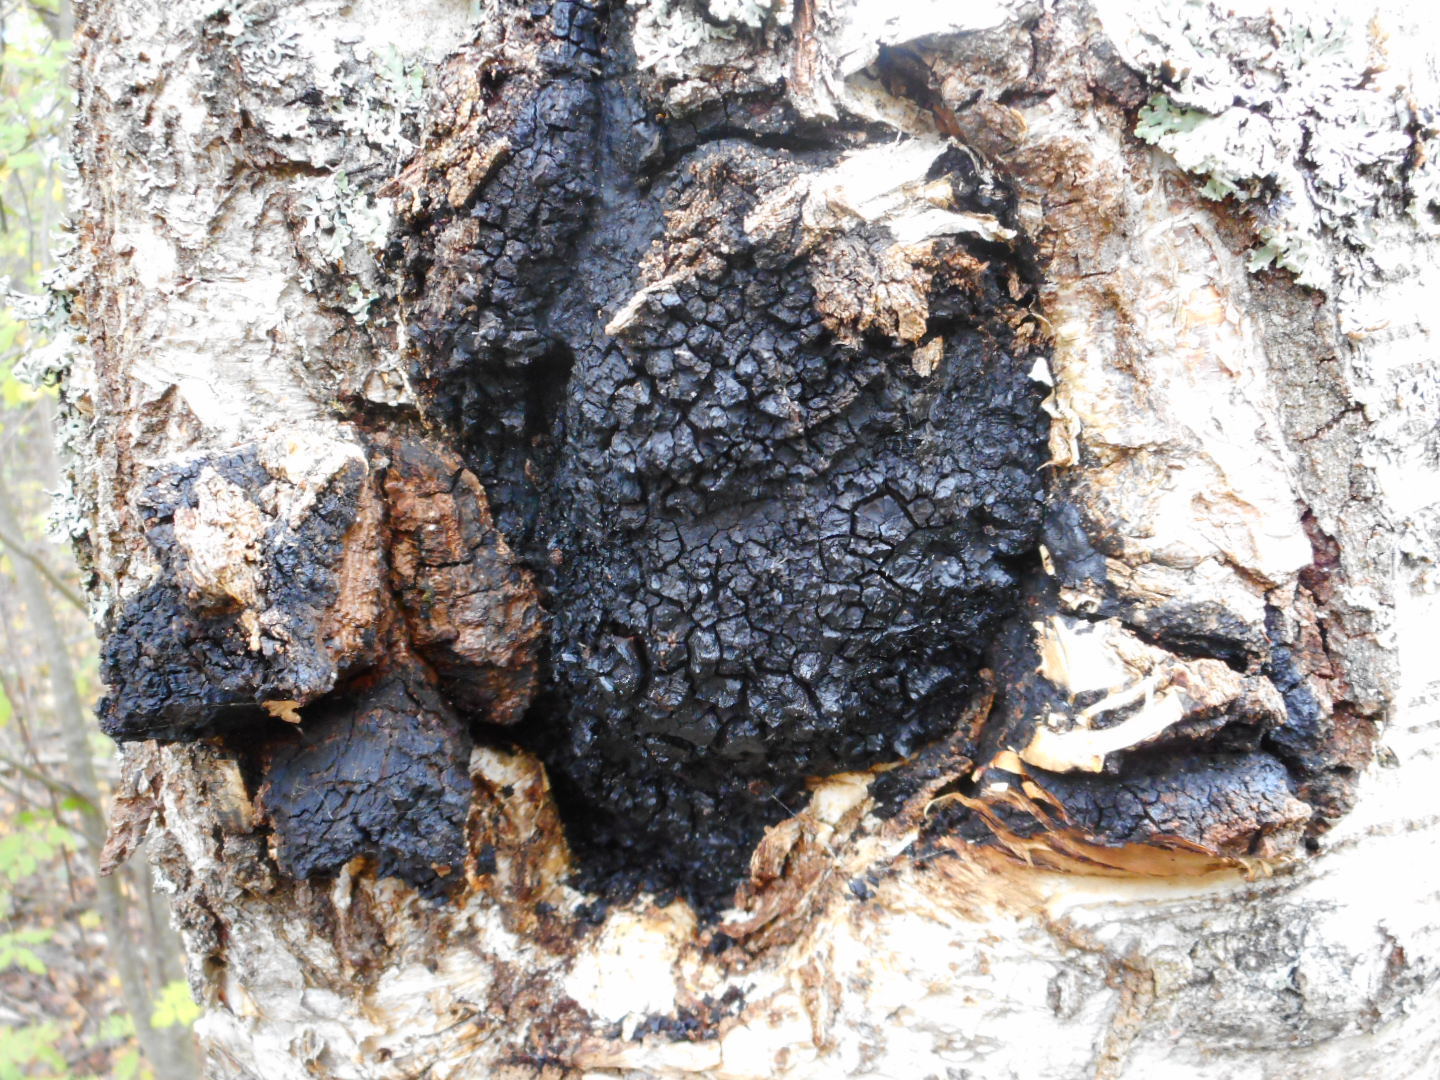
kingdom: Fungi
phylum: Basidiomycota
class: Agaricomycetes
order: Hymenochaetales
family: Hymenochaetaceae
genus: Inonotus
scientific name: Inonotus obliquus
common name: Chaga
